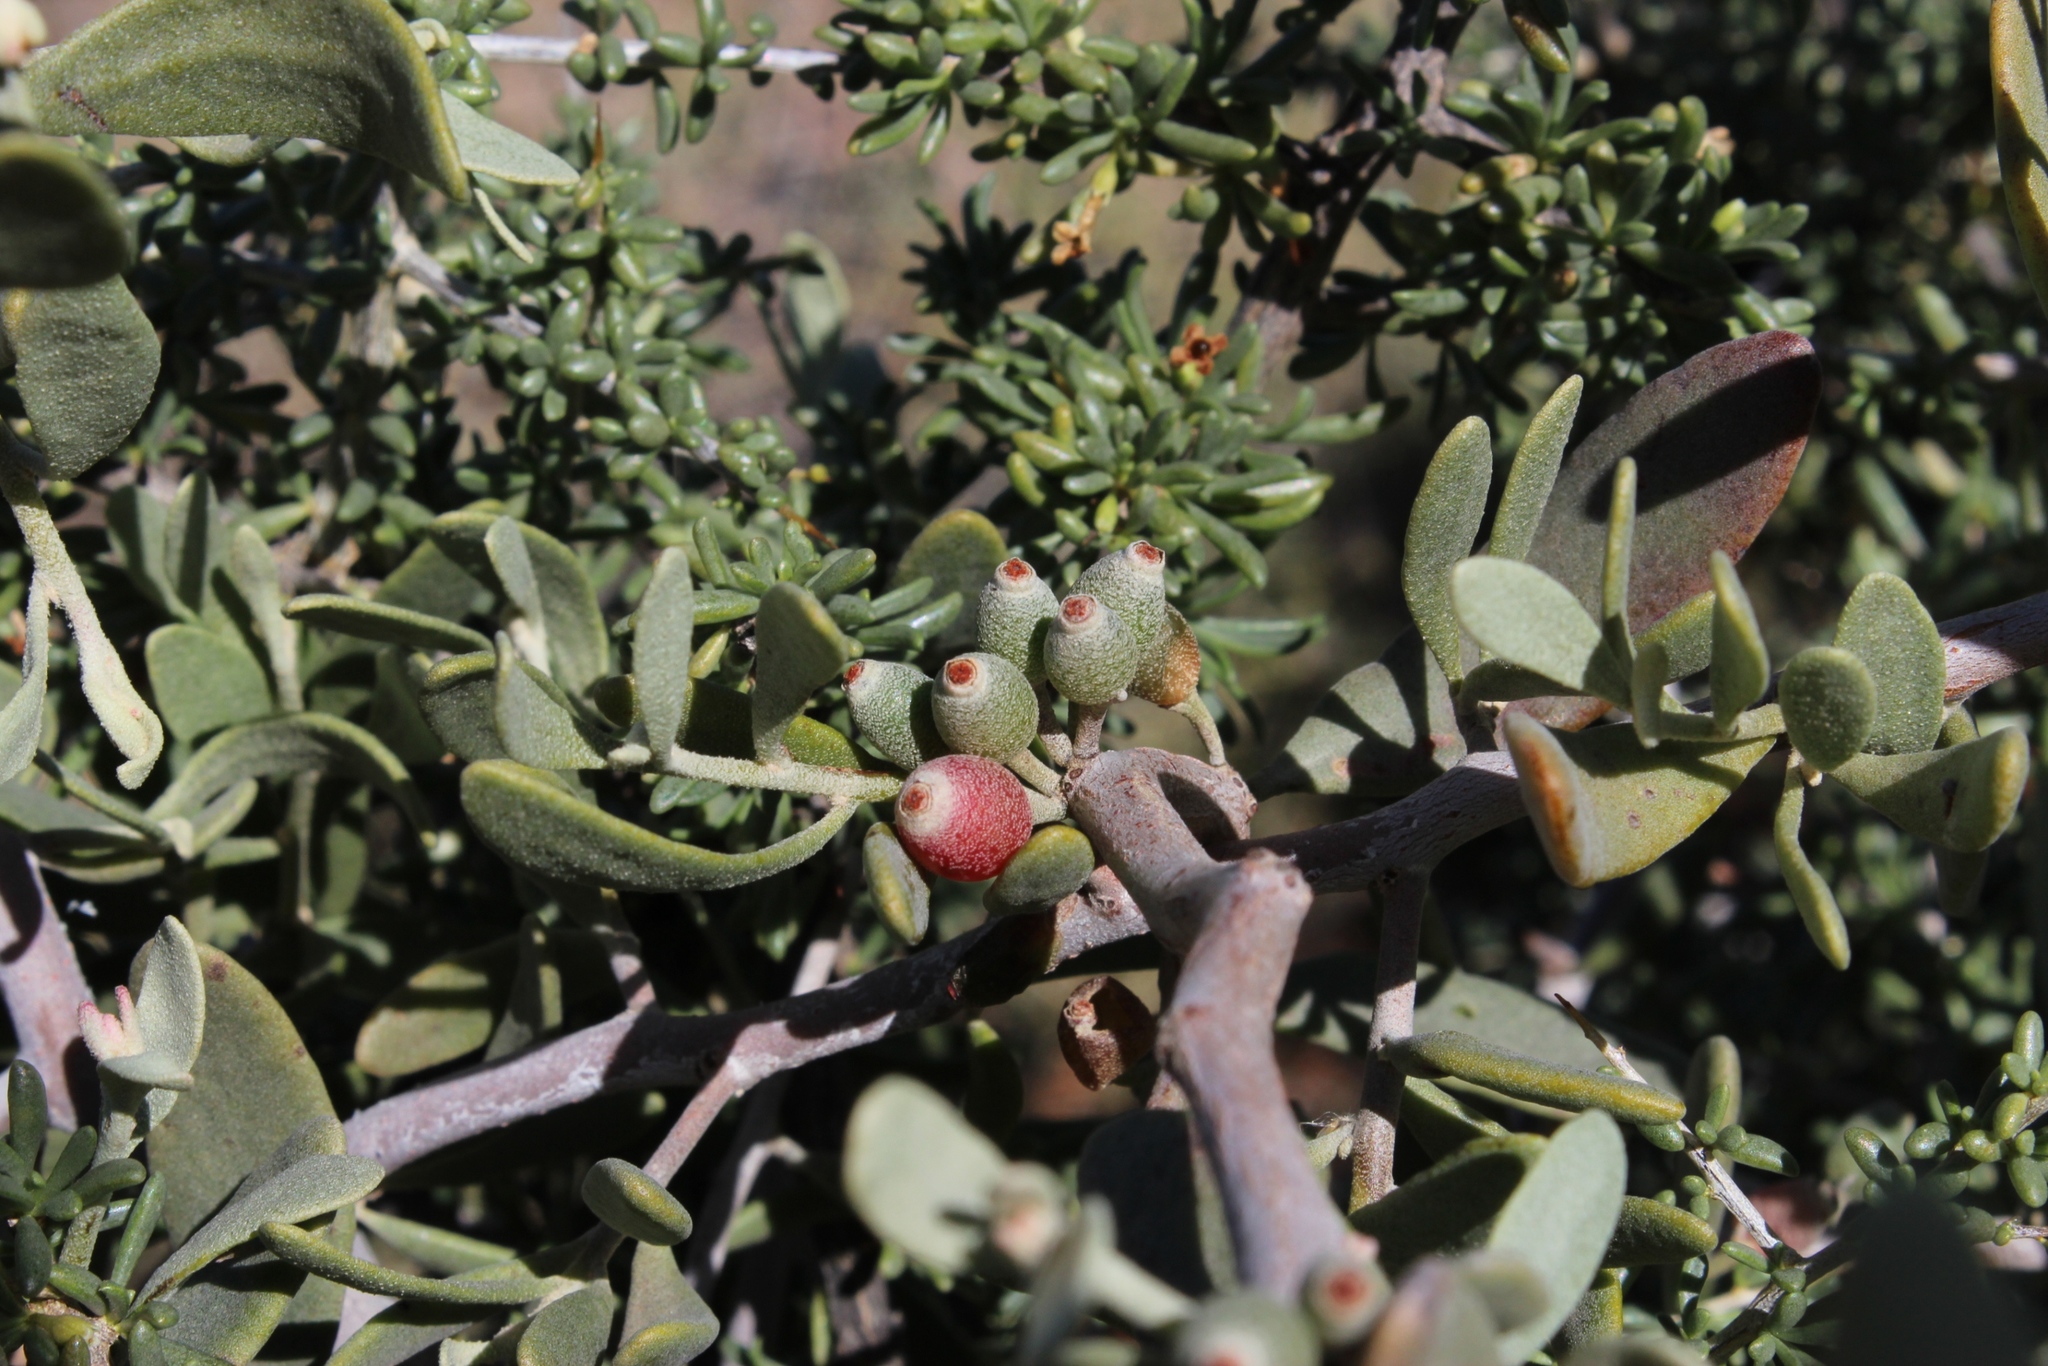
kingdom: Plantae
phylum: Tracheophyta
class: Magnoliopsida
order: Santalales
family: Loranthaceae
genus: Septulina
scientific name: Septulina glauca
